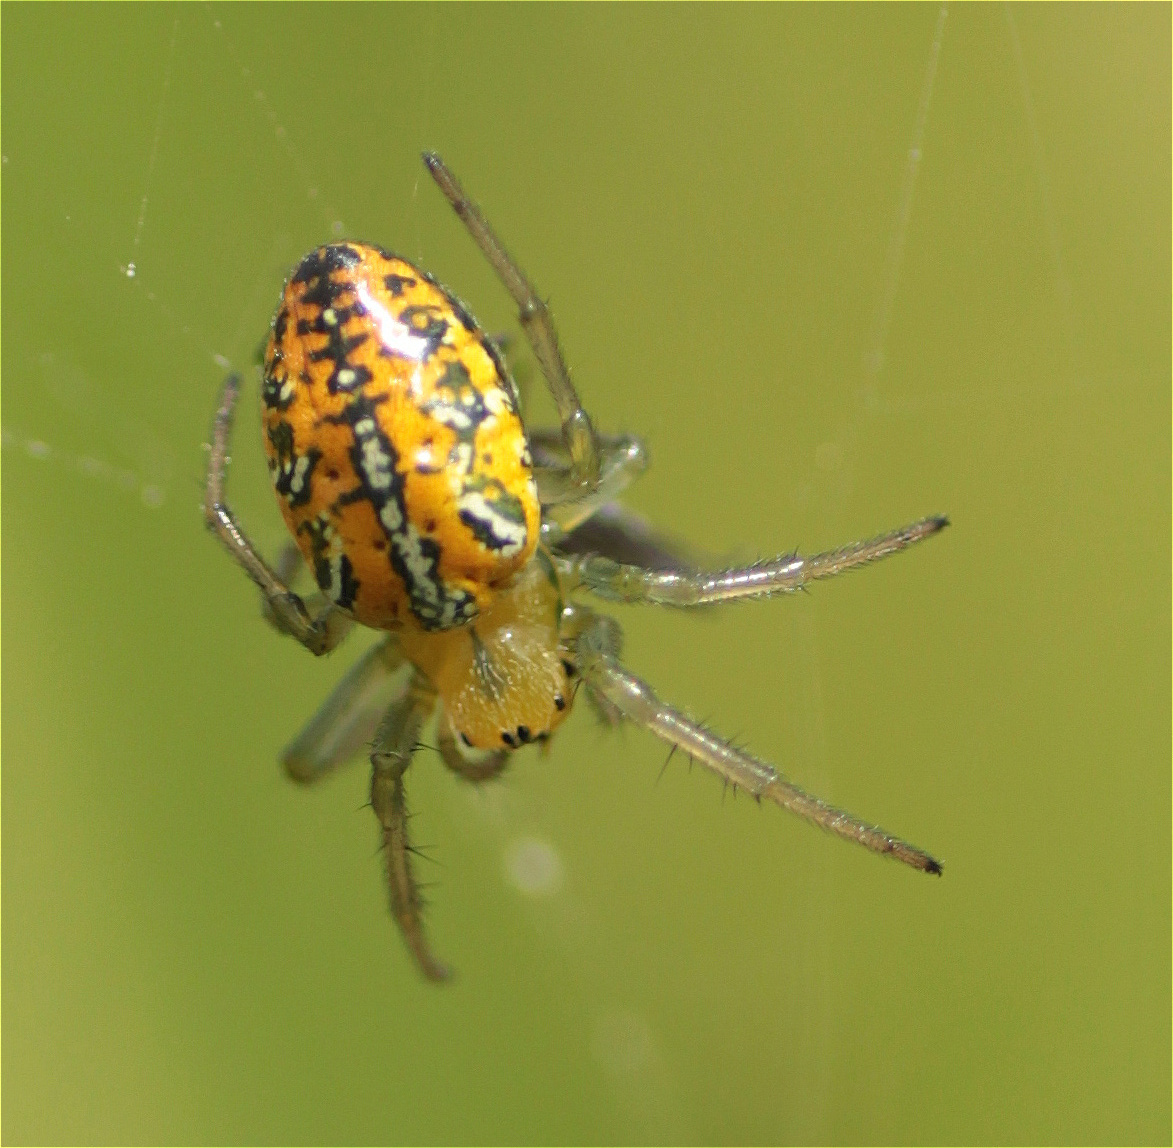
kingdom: Animalia
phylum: Arthropoda
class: Arachnida
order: Araneae
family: Araneidae
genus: Alpaida
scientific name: Alpaida variabilis
